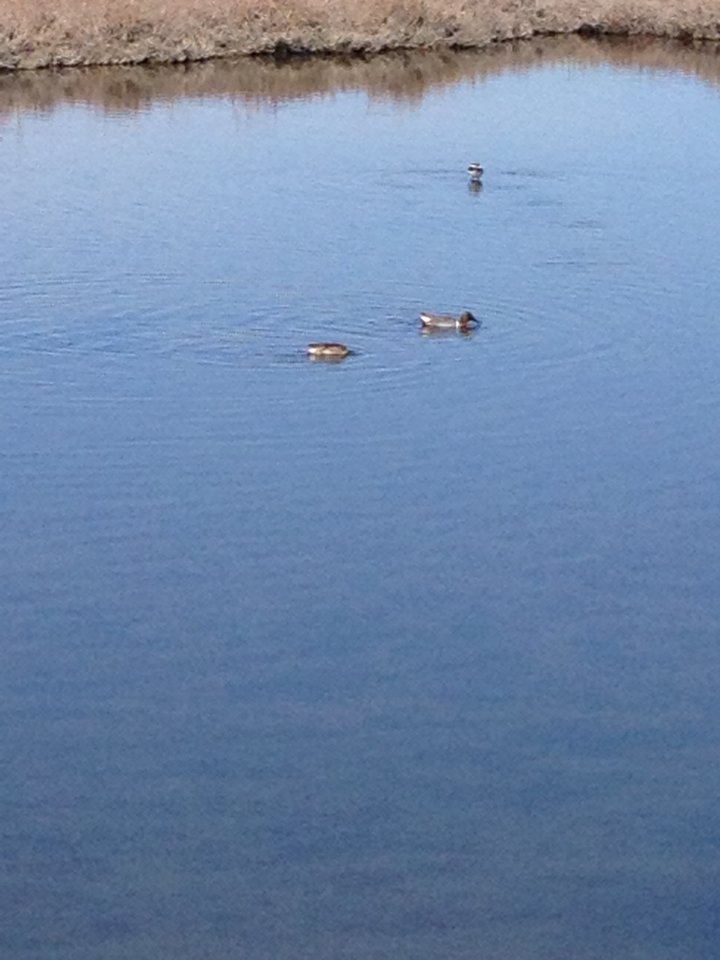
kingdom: Animalia
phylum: Chordata
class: Aves
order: Anseriformes
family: Anatidae
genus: Anas
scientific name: Anas crecca
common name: Eurasian teal
